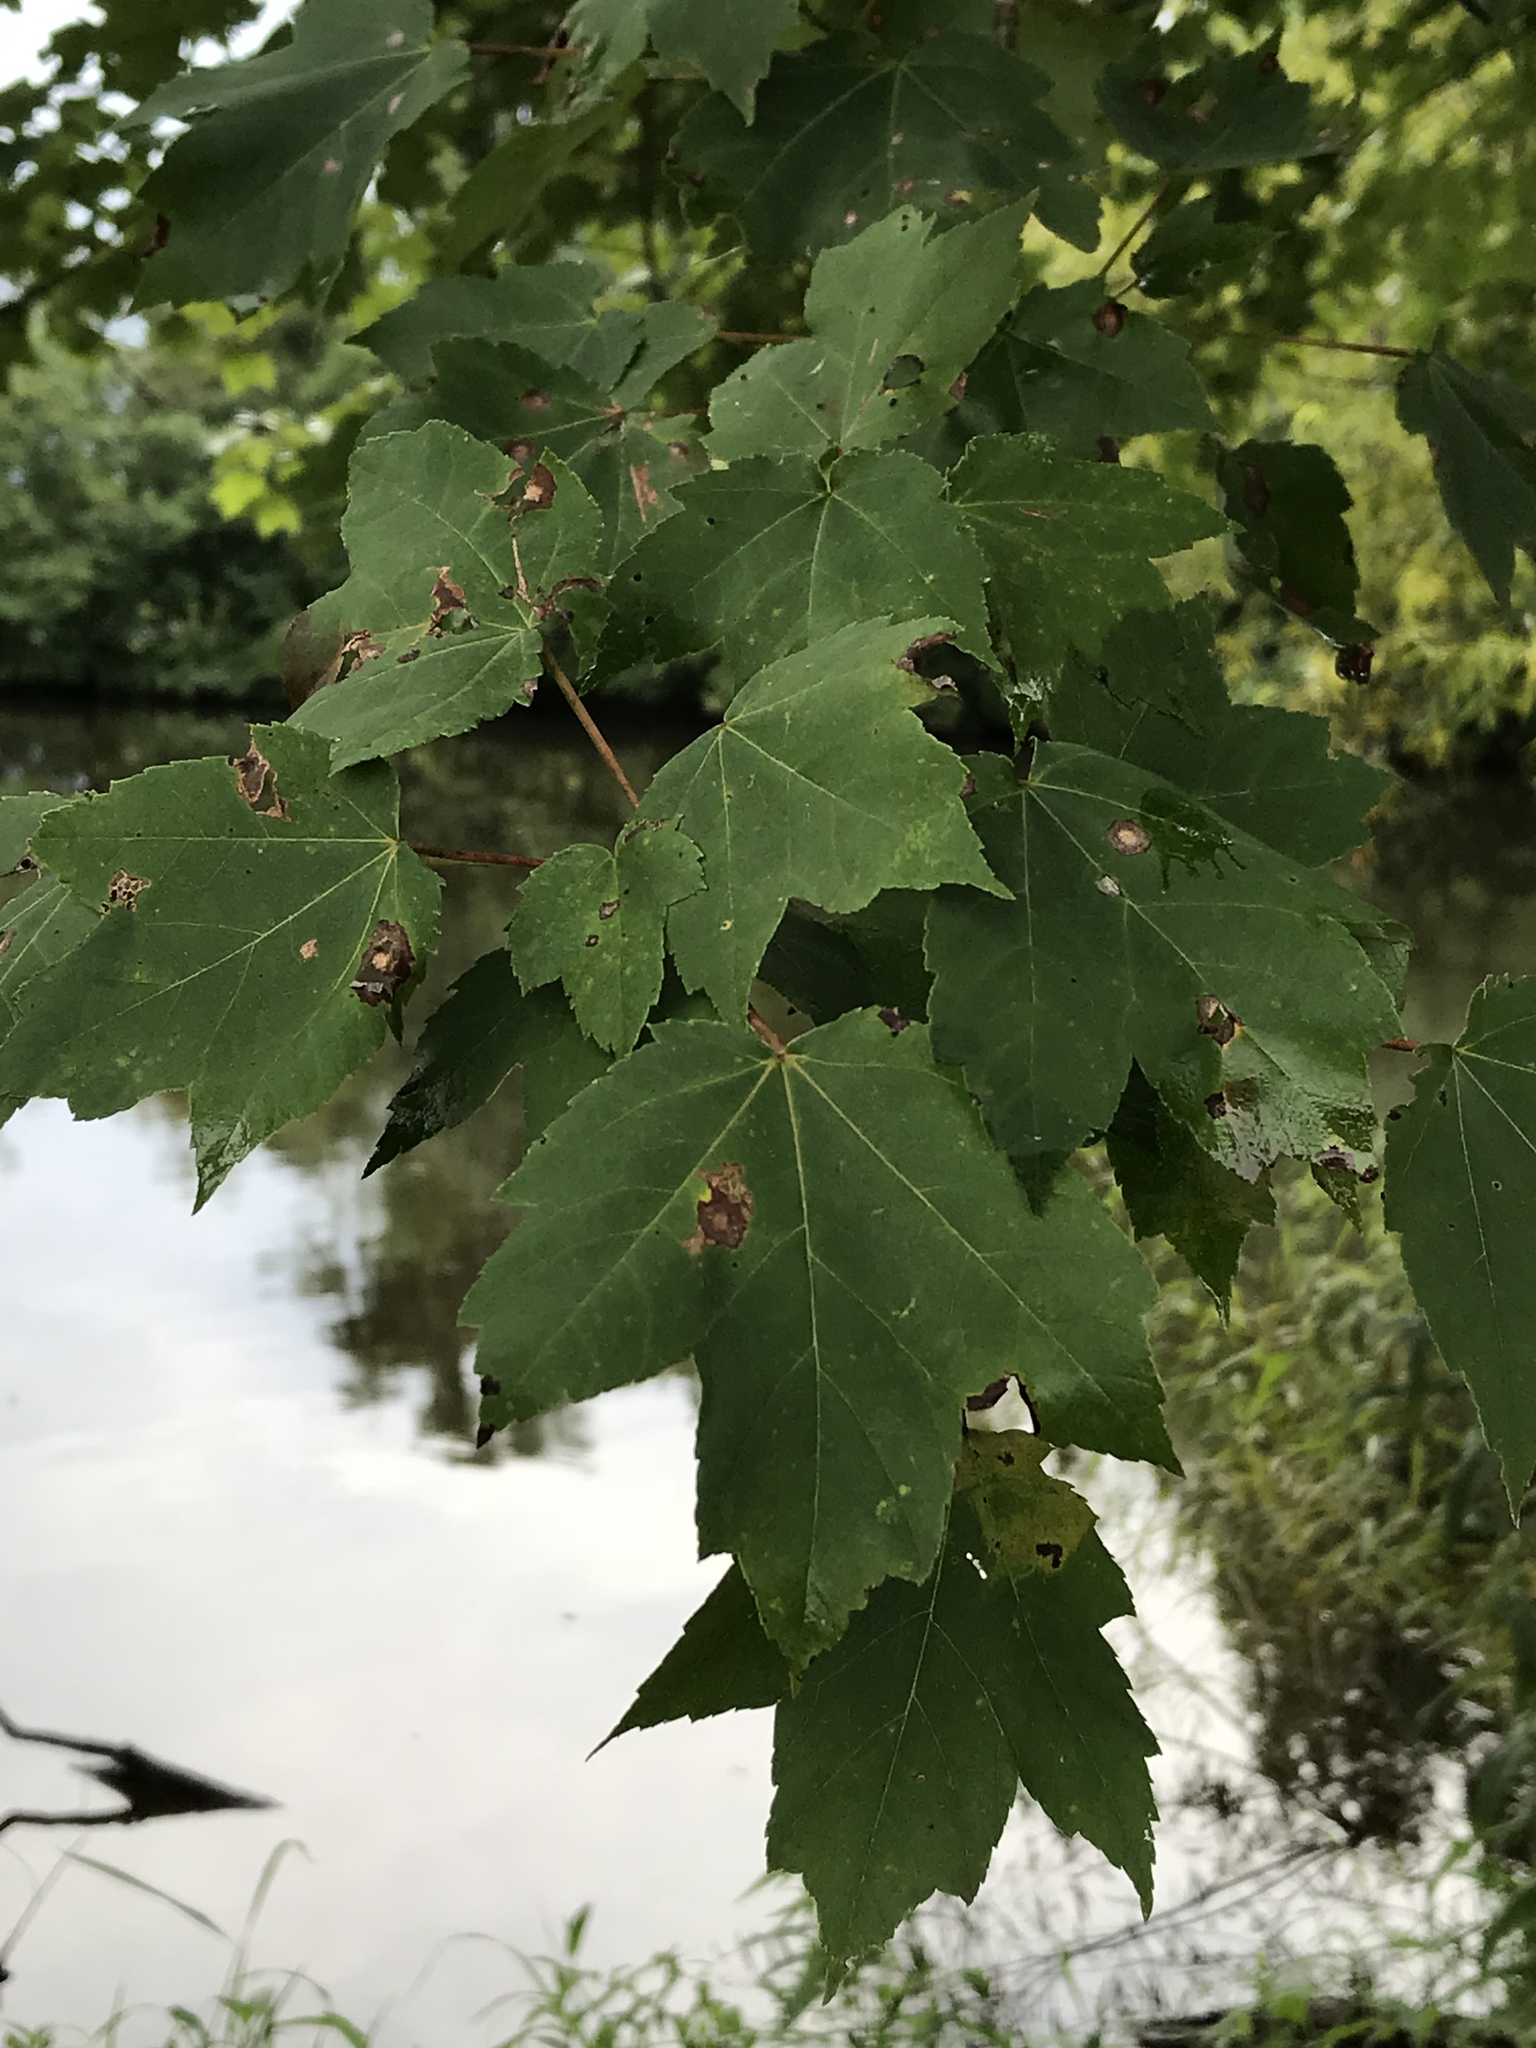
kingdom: Plantae
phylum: Tracheophyta
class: Magnoliopsida
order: Sapindales
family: Sapindaceae
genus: Acer
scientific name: Acer rubrum
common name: Red maple
